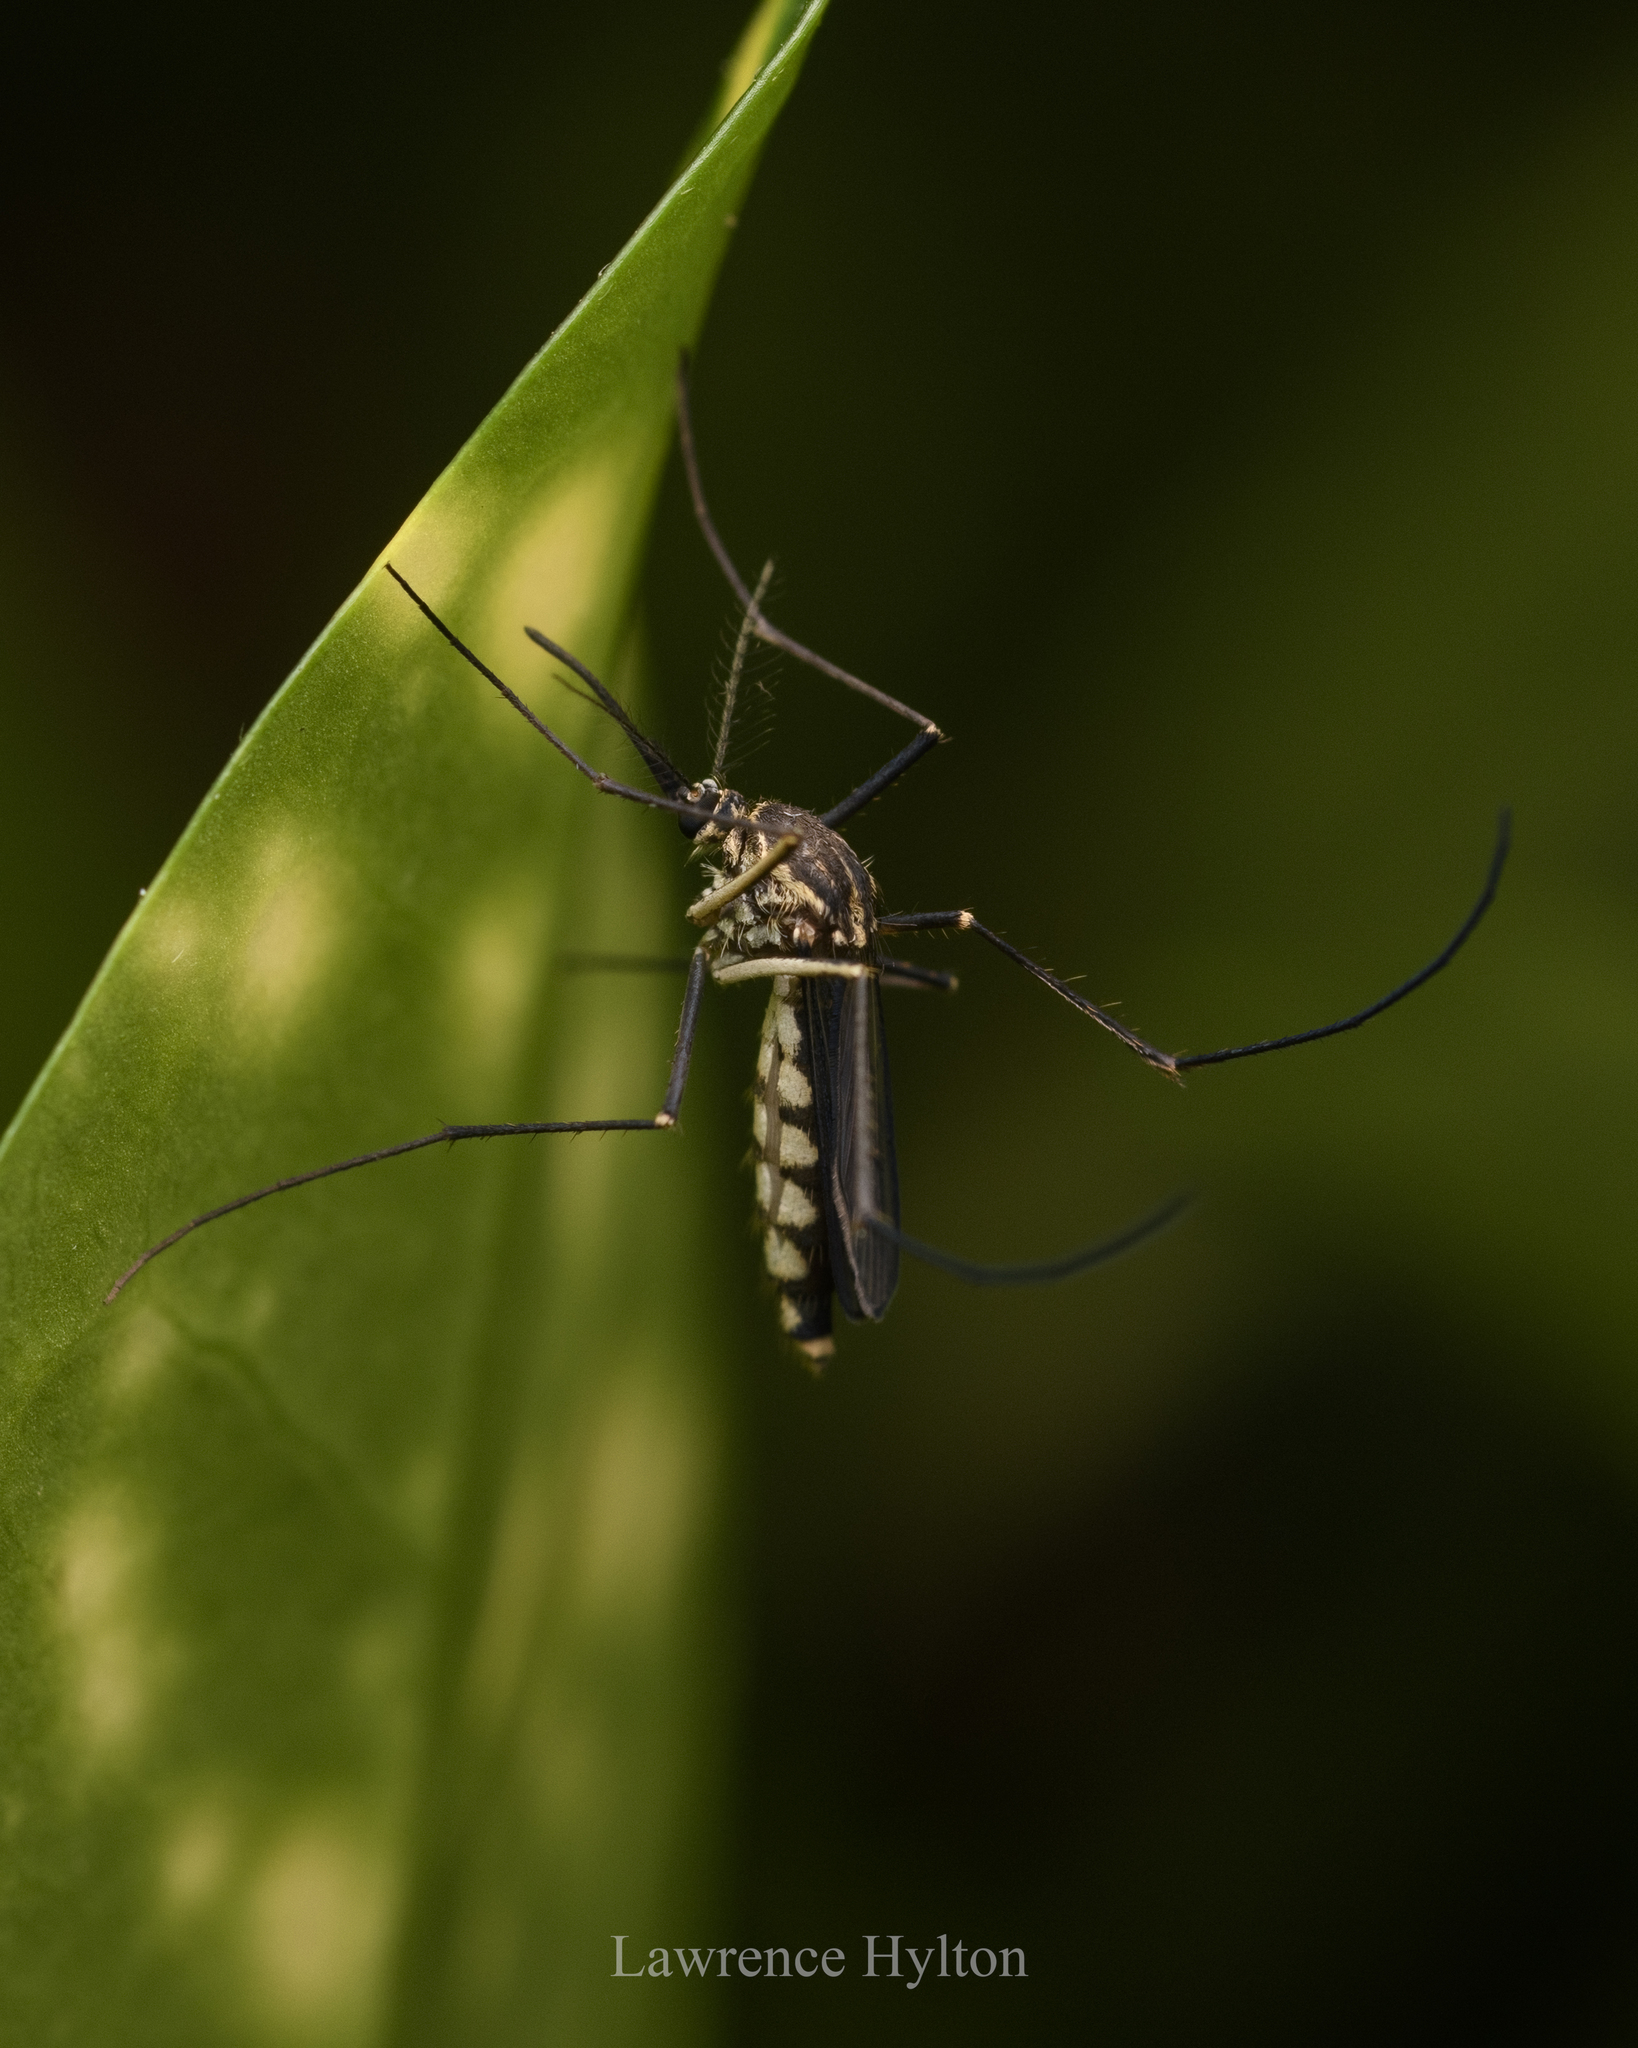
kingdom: Animalia
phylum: Arthropoda
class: Insecta
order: Diptera
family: Culicidae
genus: Armigeres
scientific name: Armigeres subalbatus
